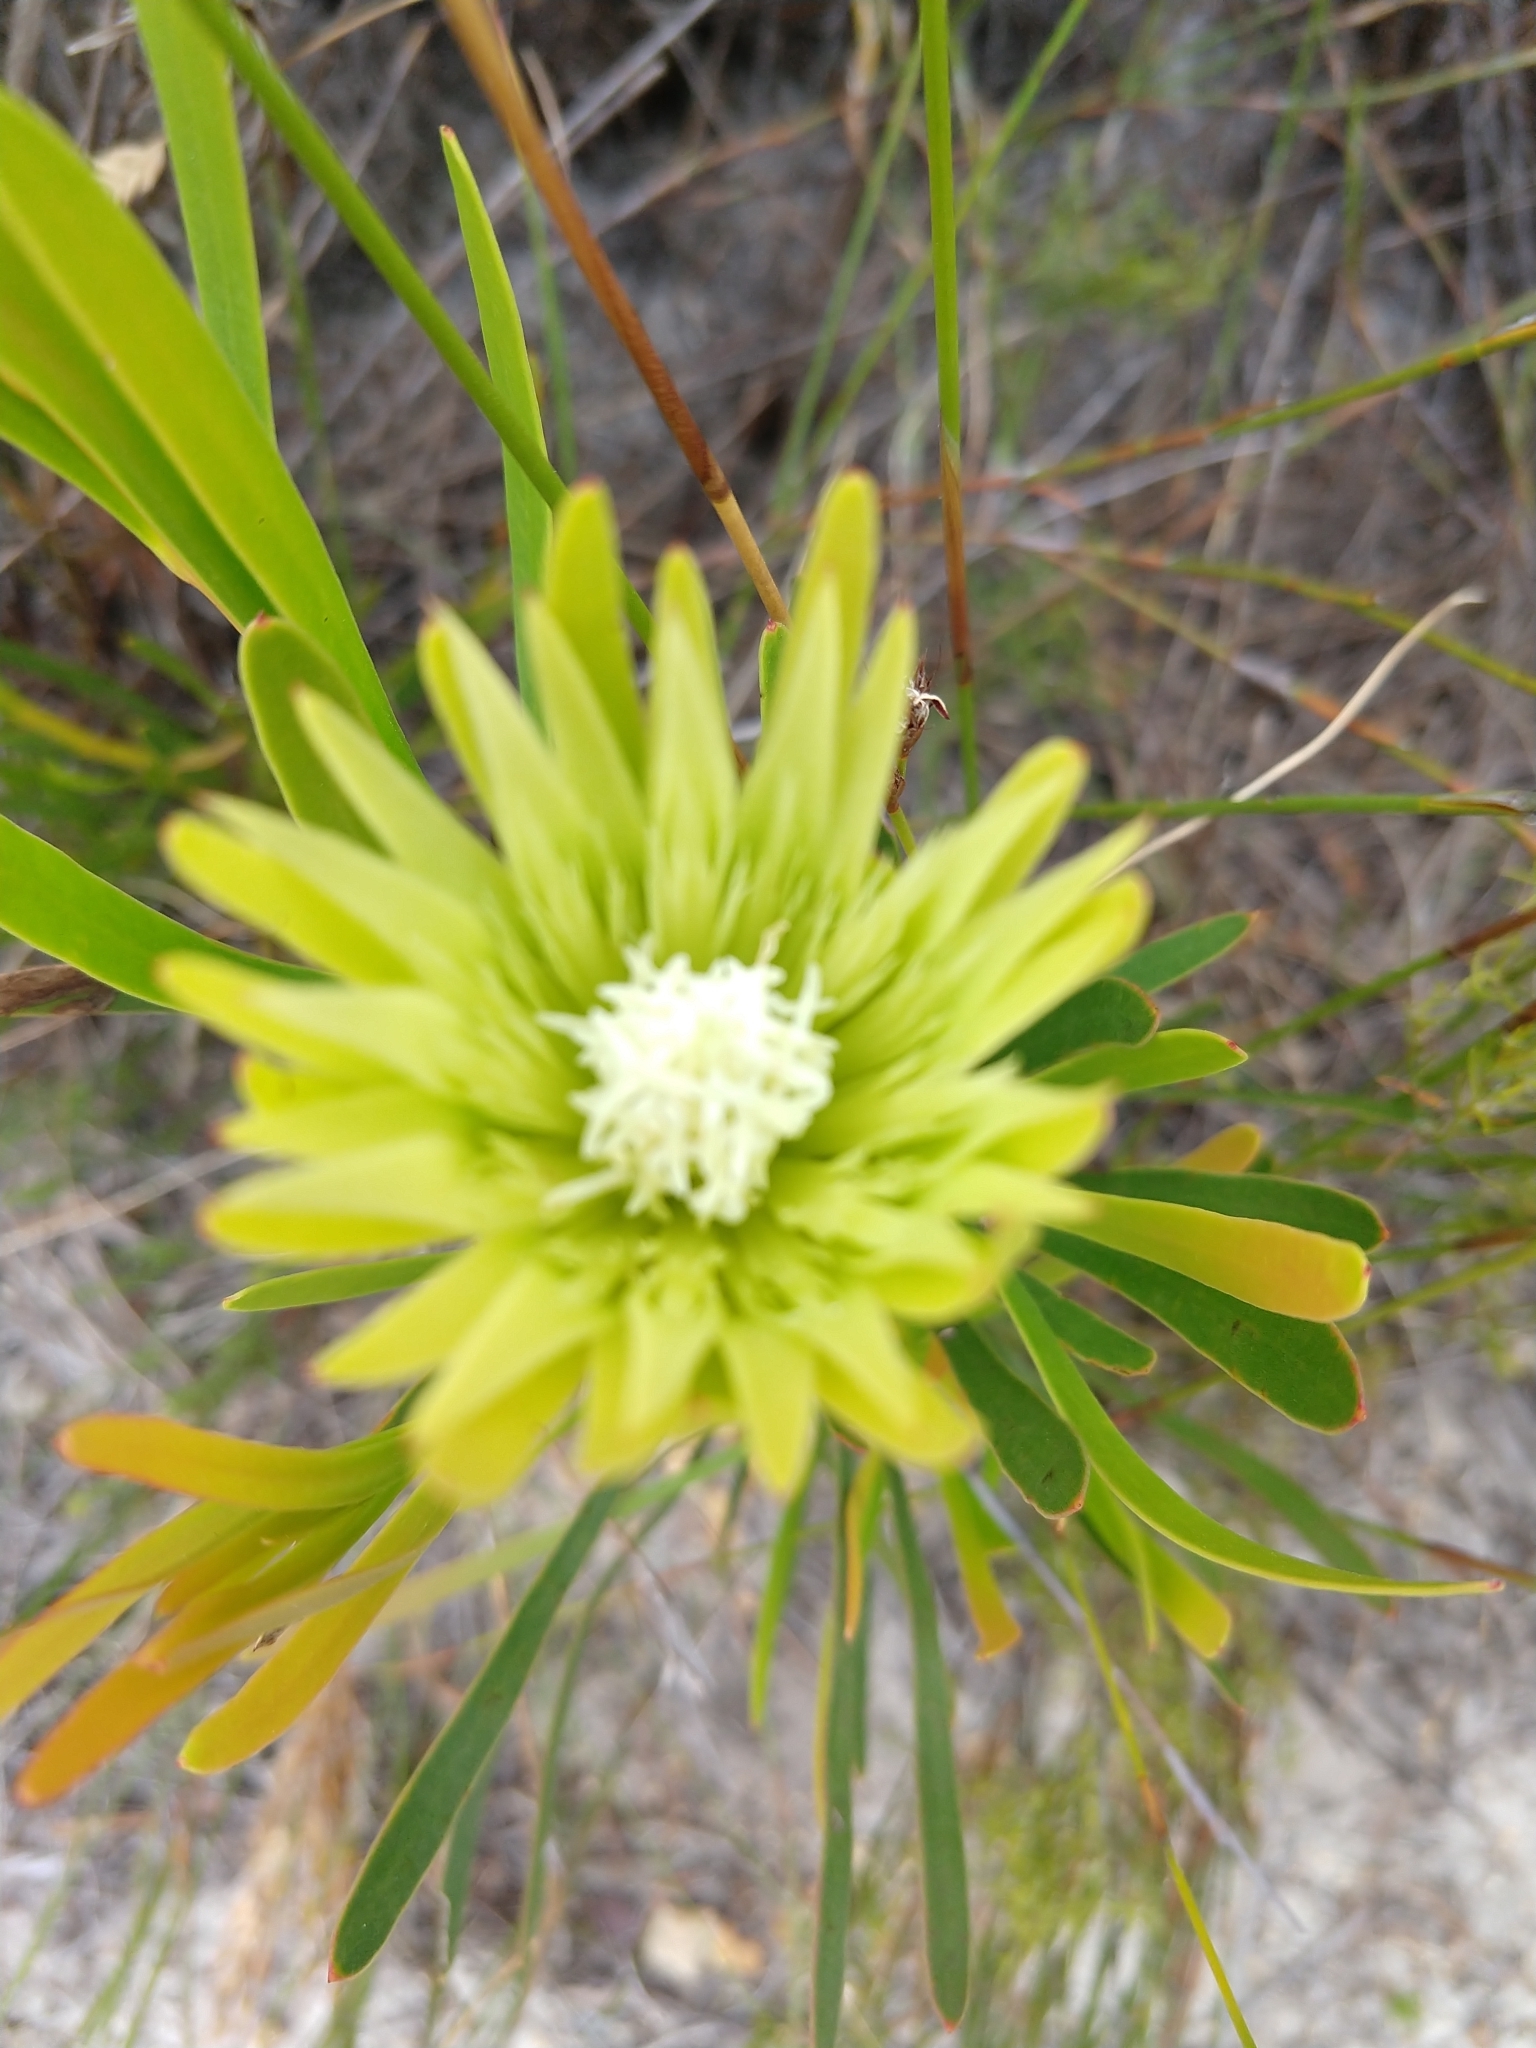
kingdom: Plantae
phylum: Tracheophyta
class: Magnoliopsida
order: Proteales
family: Proteaceae
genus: Aulax
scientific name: Aulax umbellata
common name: Broad-leaf featherbush
